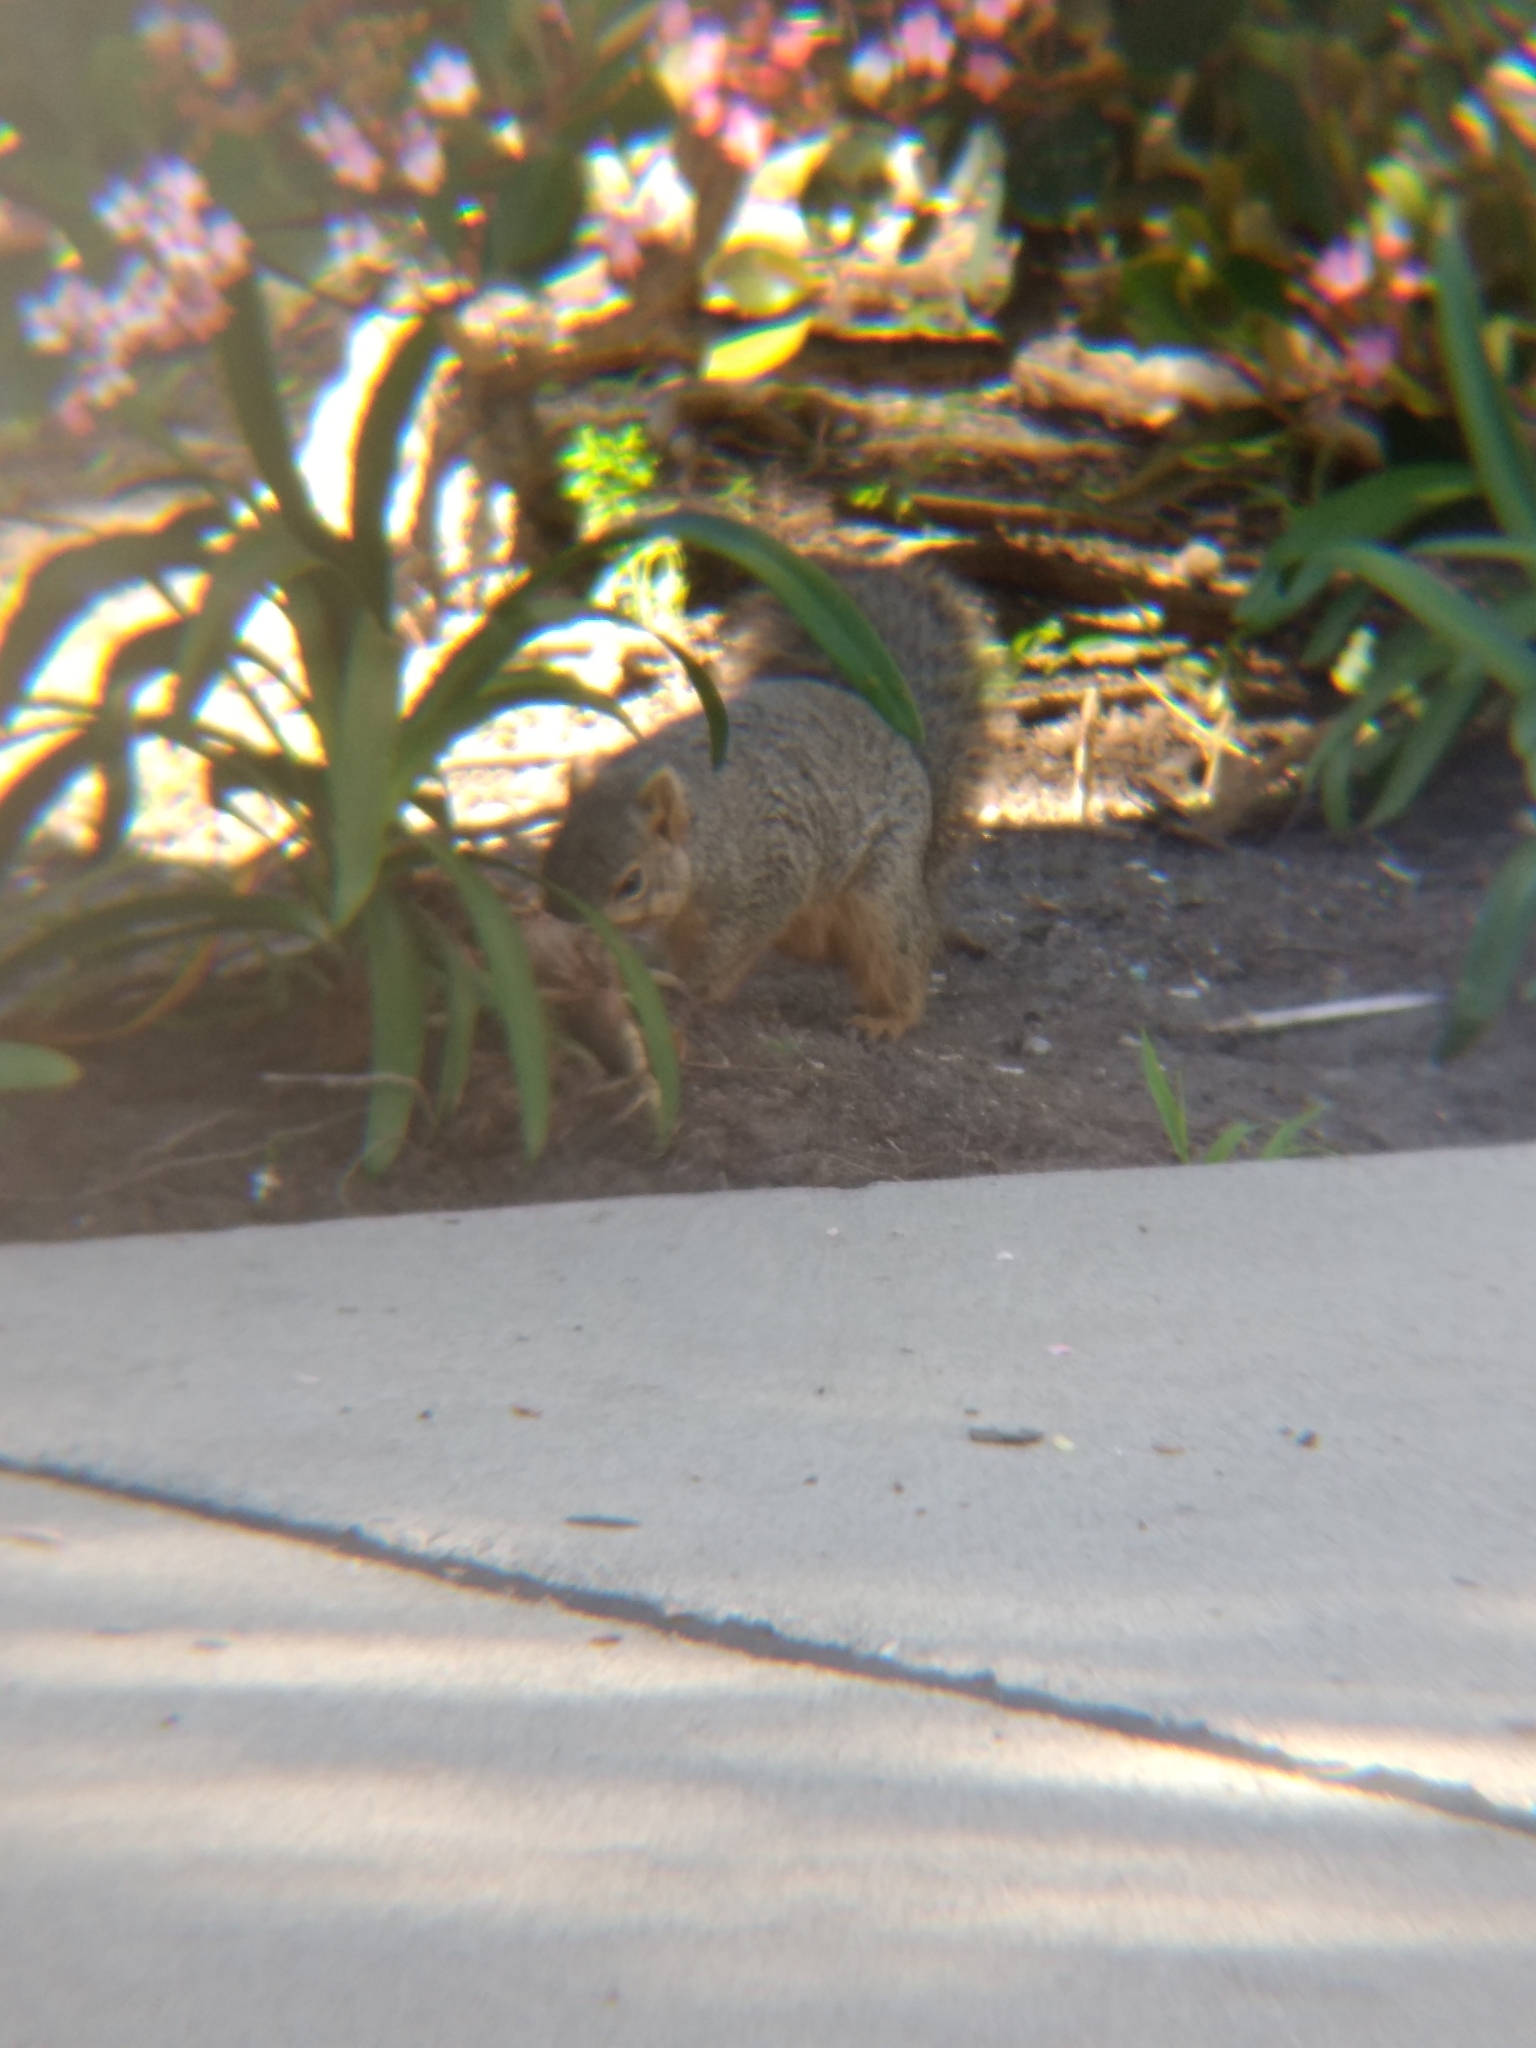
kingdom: Animalia
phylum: Chordata
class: Mammalia
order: Rodentia
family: Sciuridae
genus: Sciurus
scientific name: Sciurus niger
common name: Fox squirrel
